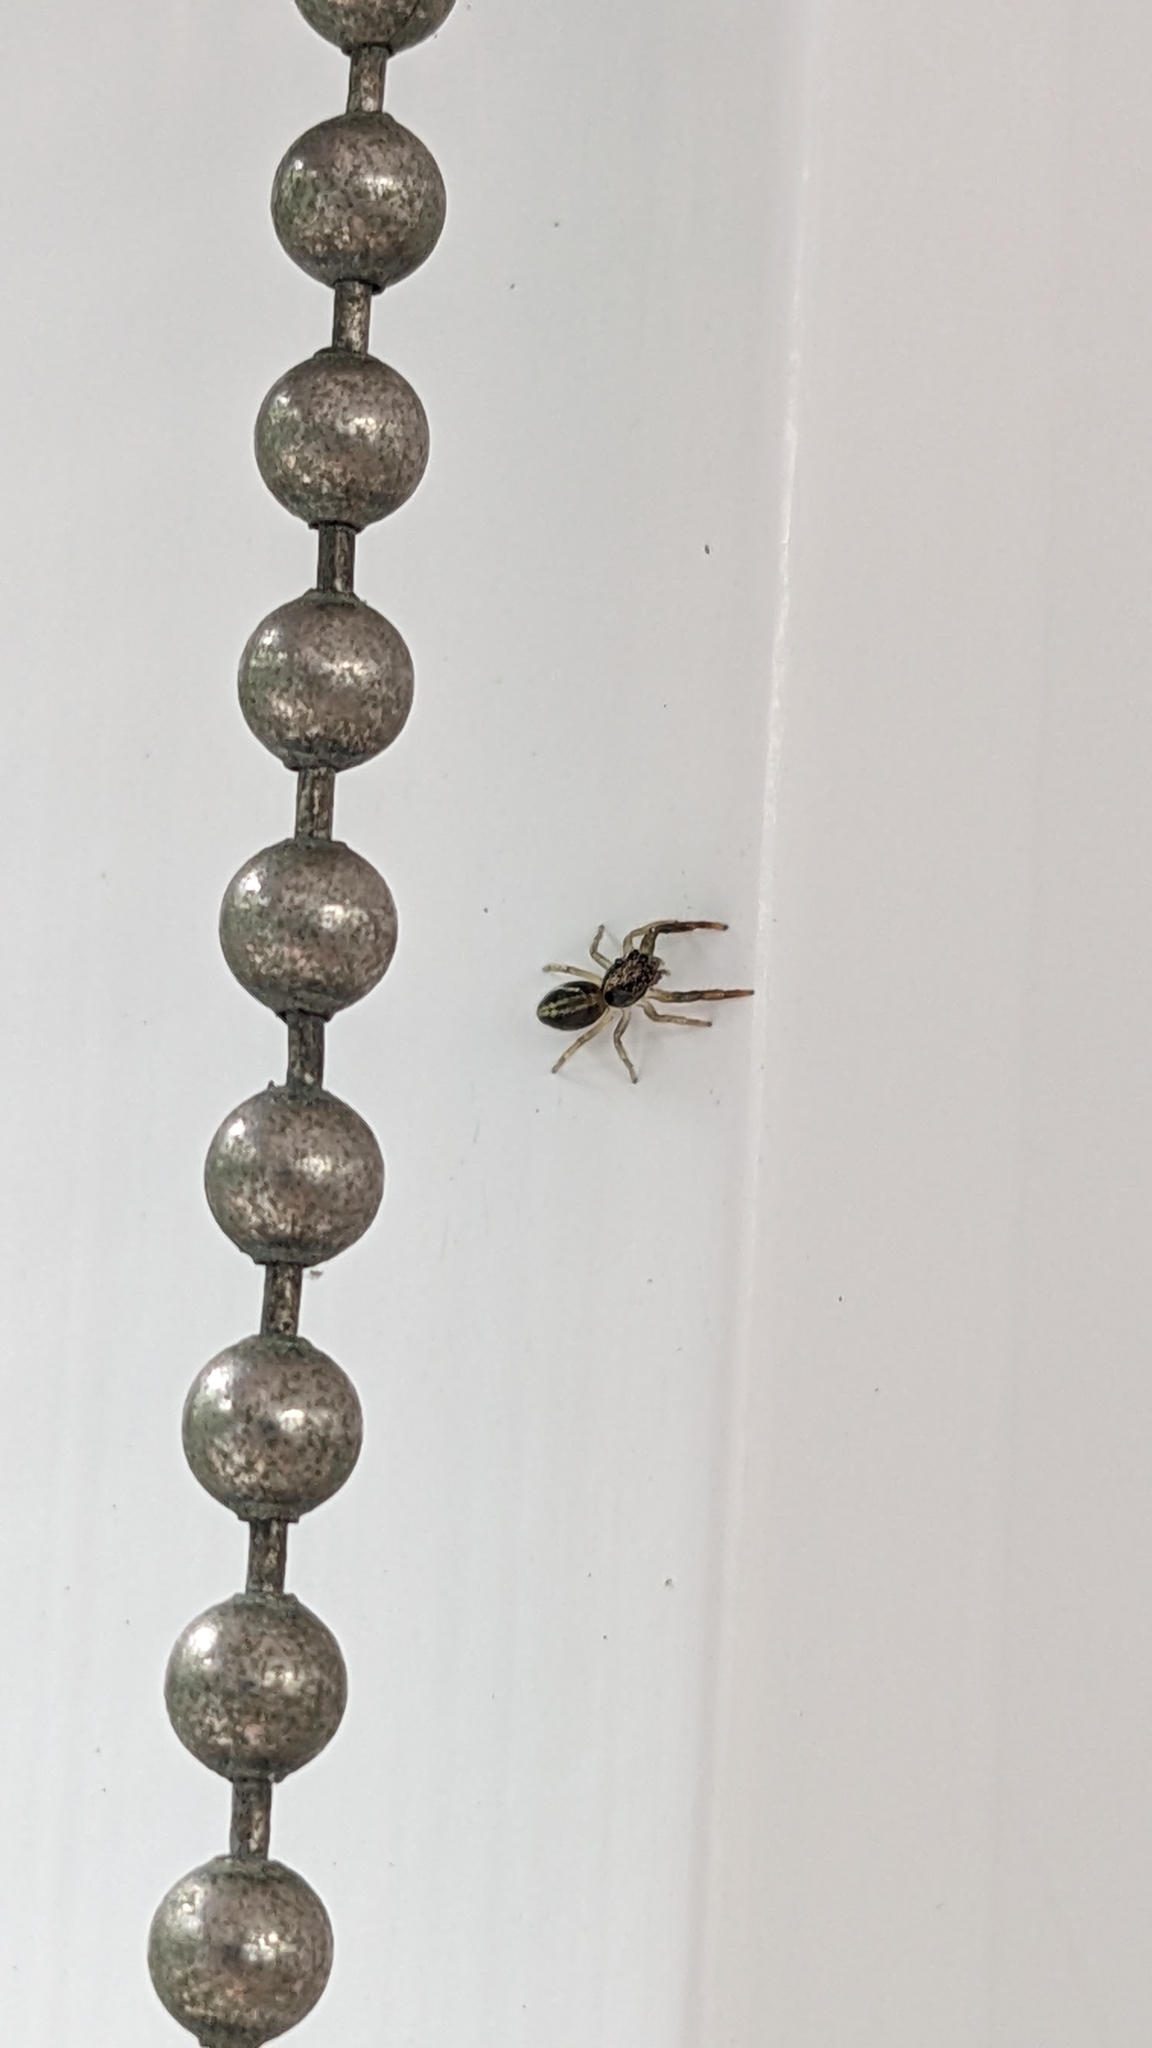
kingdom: Animalia
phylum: Arthropoda
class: Arachnida
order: Araneae
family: Salticidae
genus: Trite
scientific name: Trite planiceps
